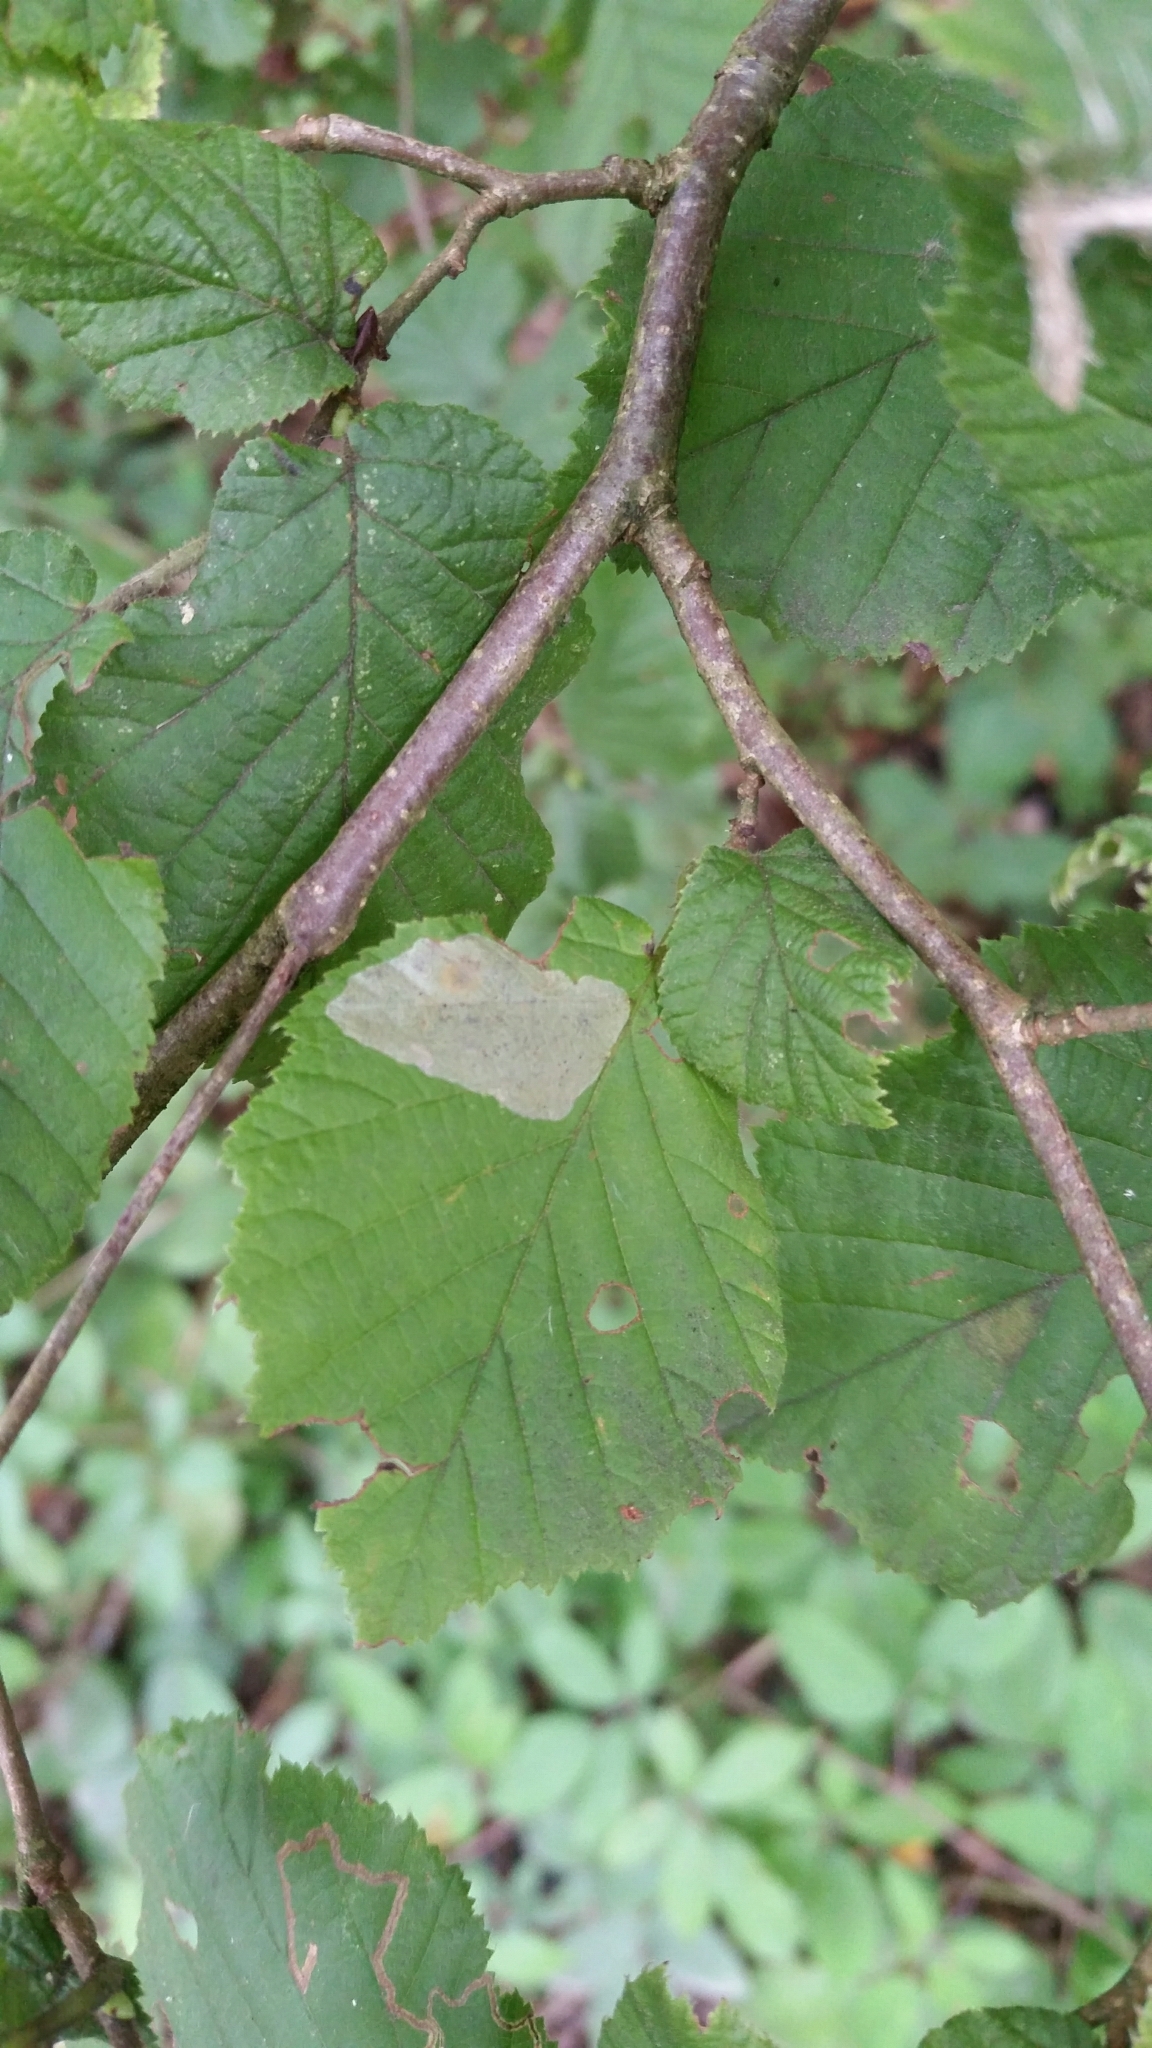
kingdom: Animalia
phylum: Arthropoda
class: Insecta
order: Lepidoptera
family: Gracillariidae
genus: Phyllonorycter
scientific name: Phyllonorycter coryli
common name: Nut-leaf blister moth
